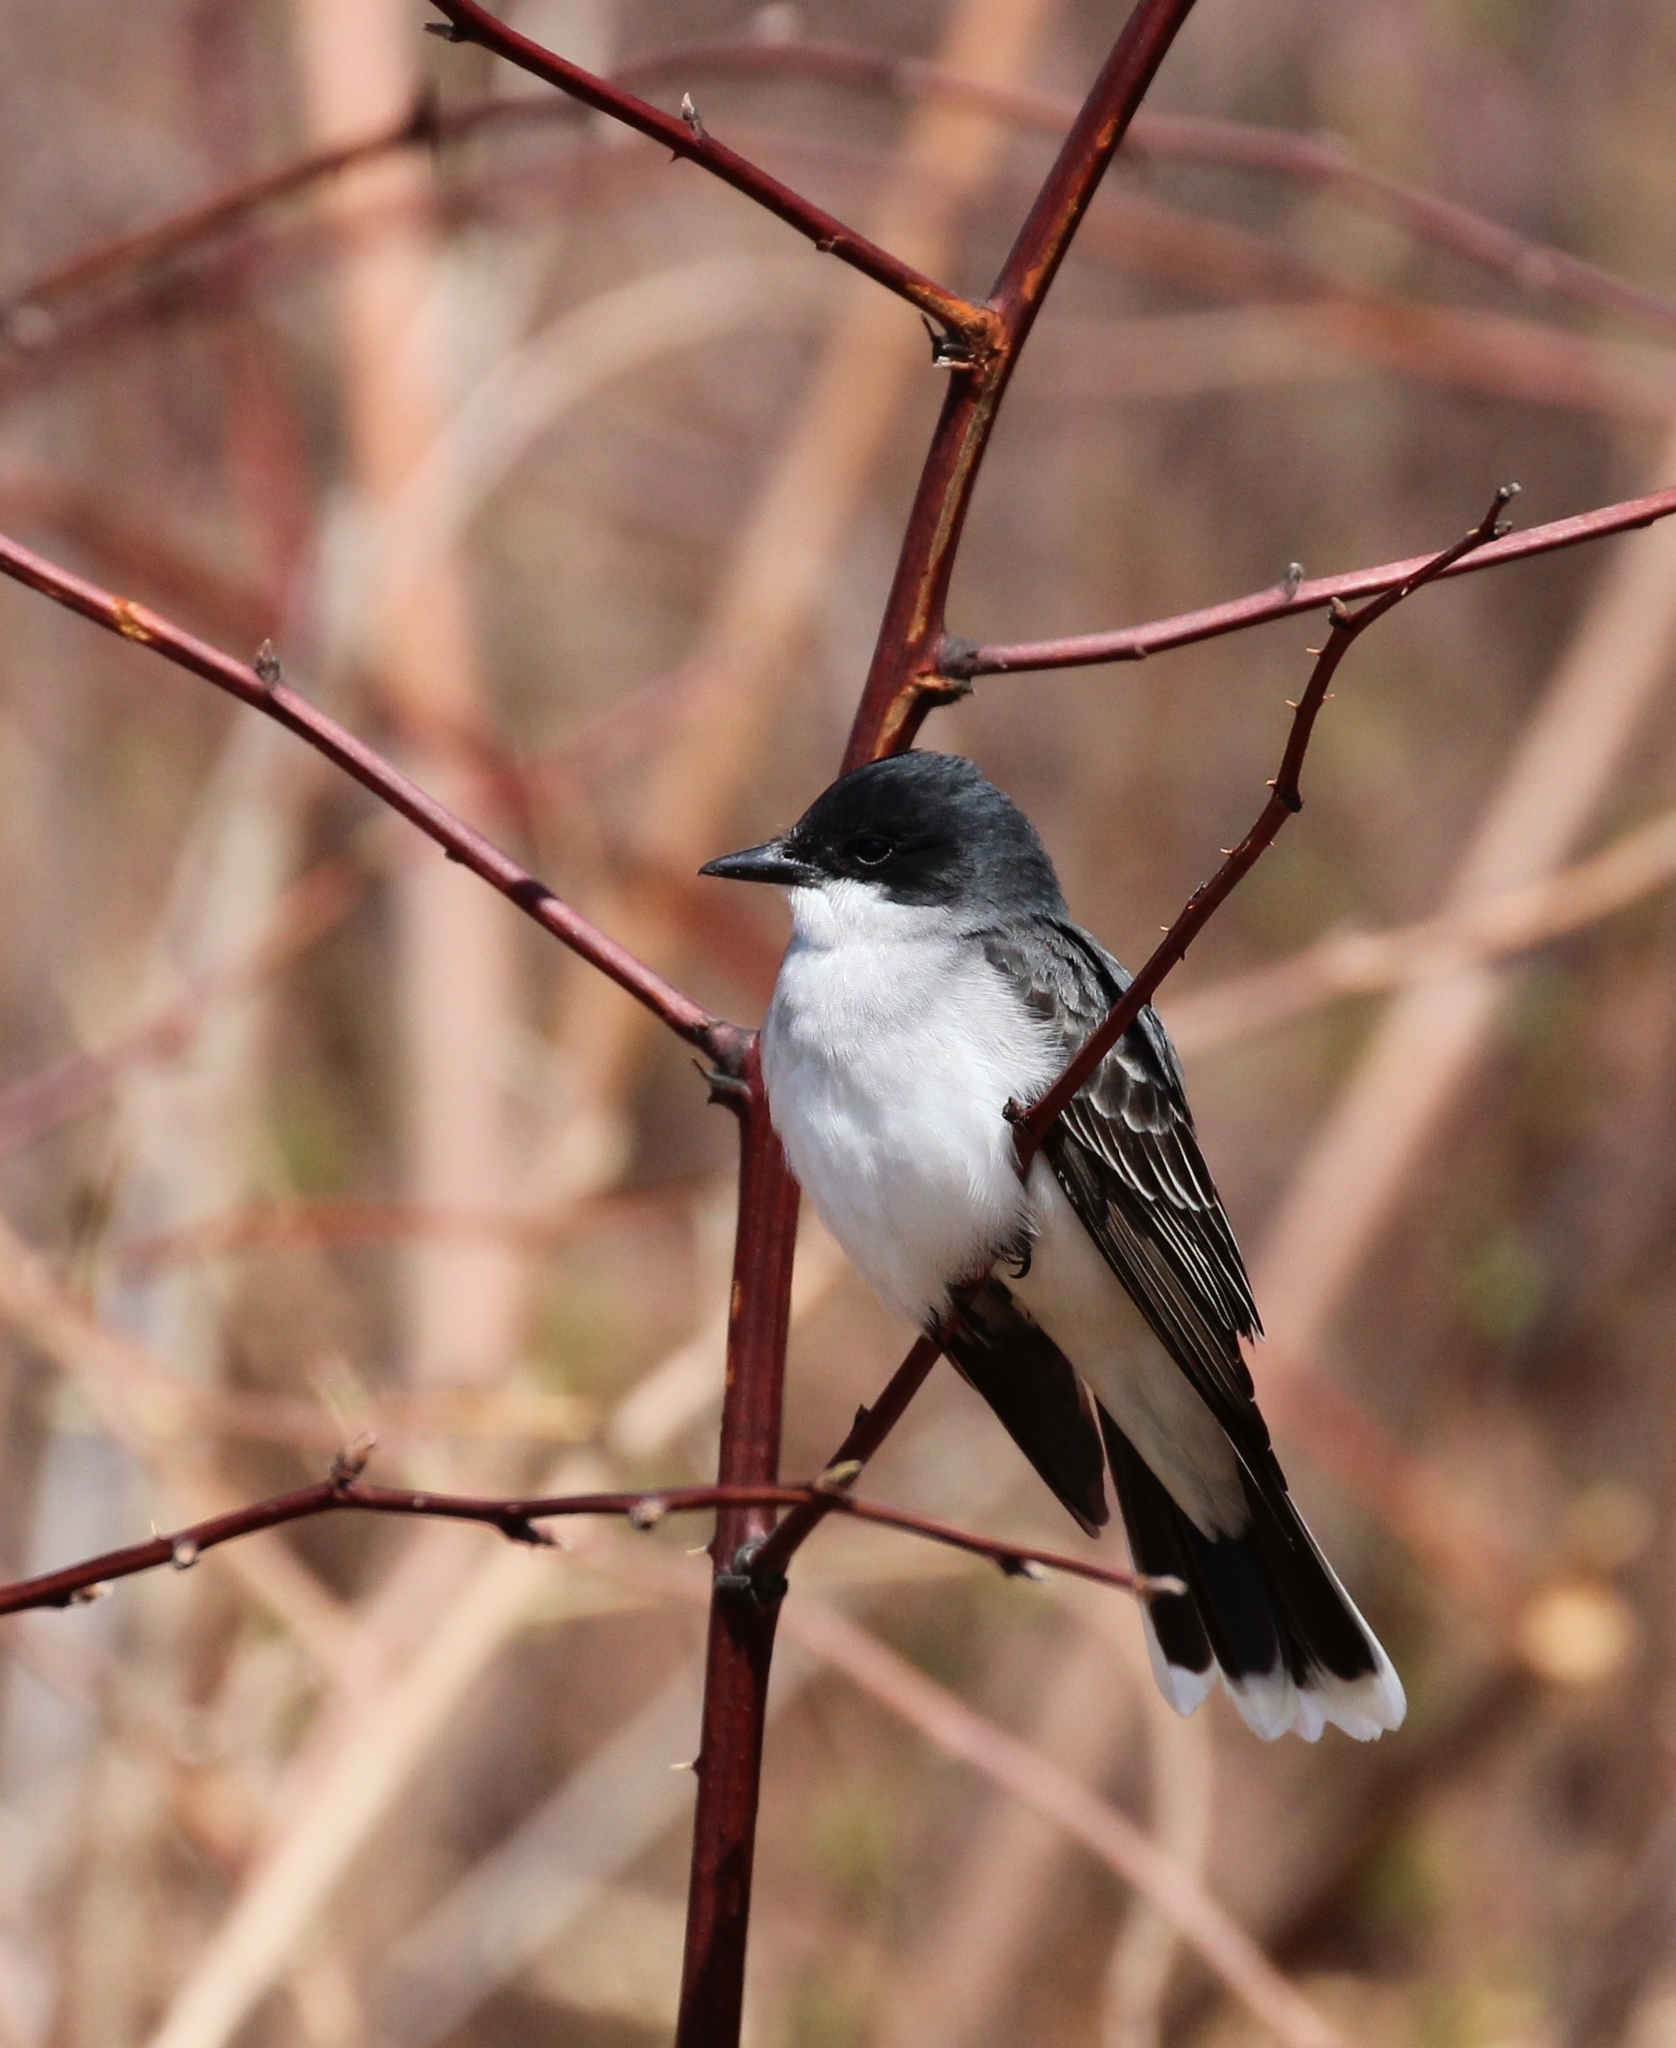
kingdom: Animalia
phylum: Chordata
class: Aves
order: Passeriformes
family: Tyrannidae
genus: Tyrannus
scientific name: Tyrannus tyrannus
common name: Eastern kingbird
